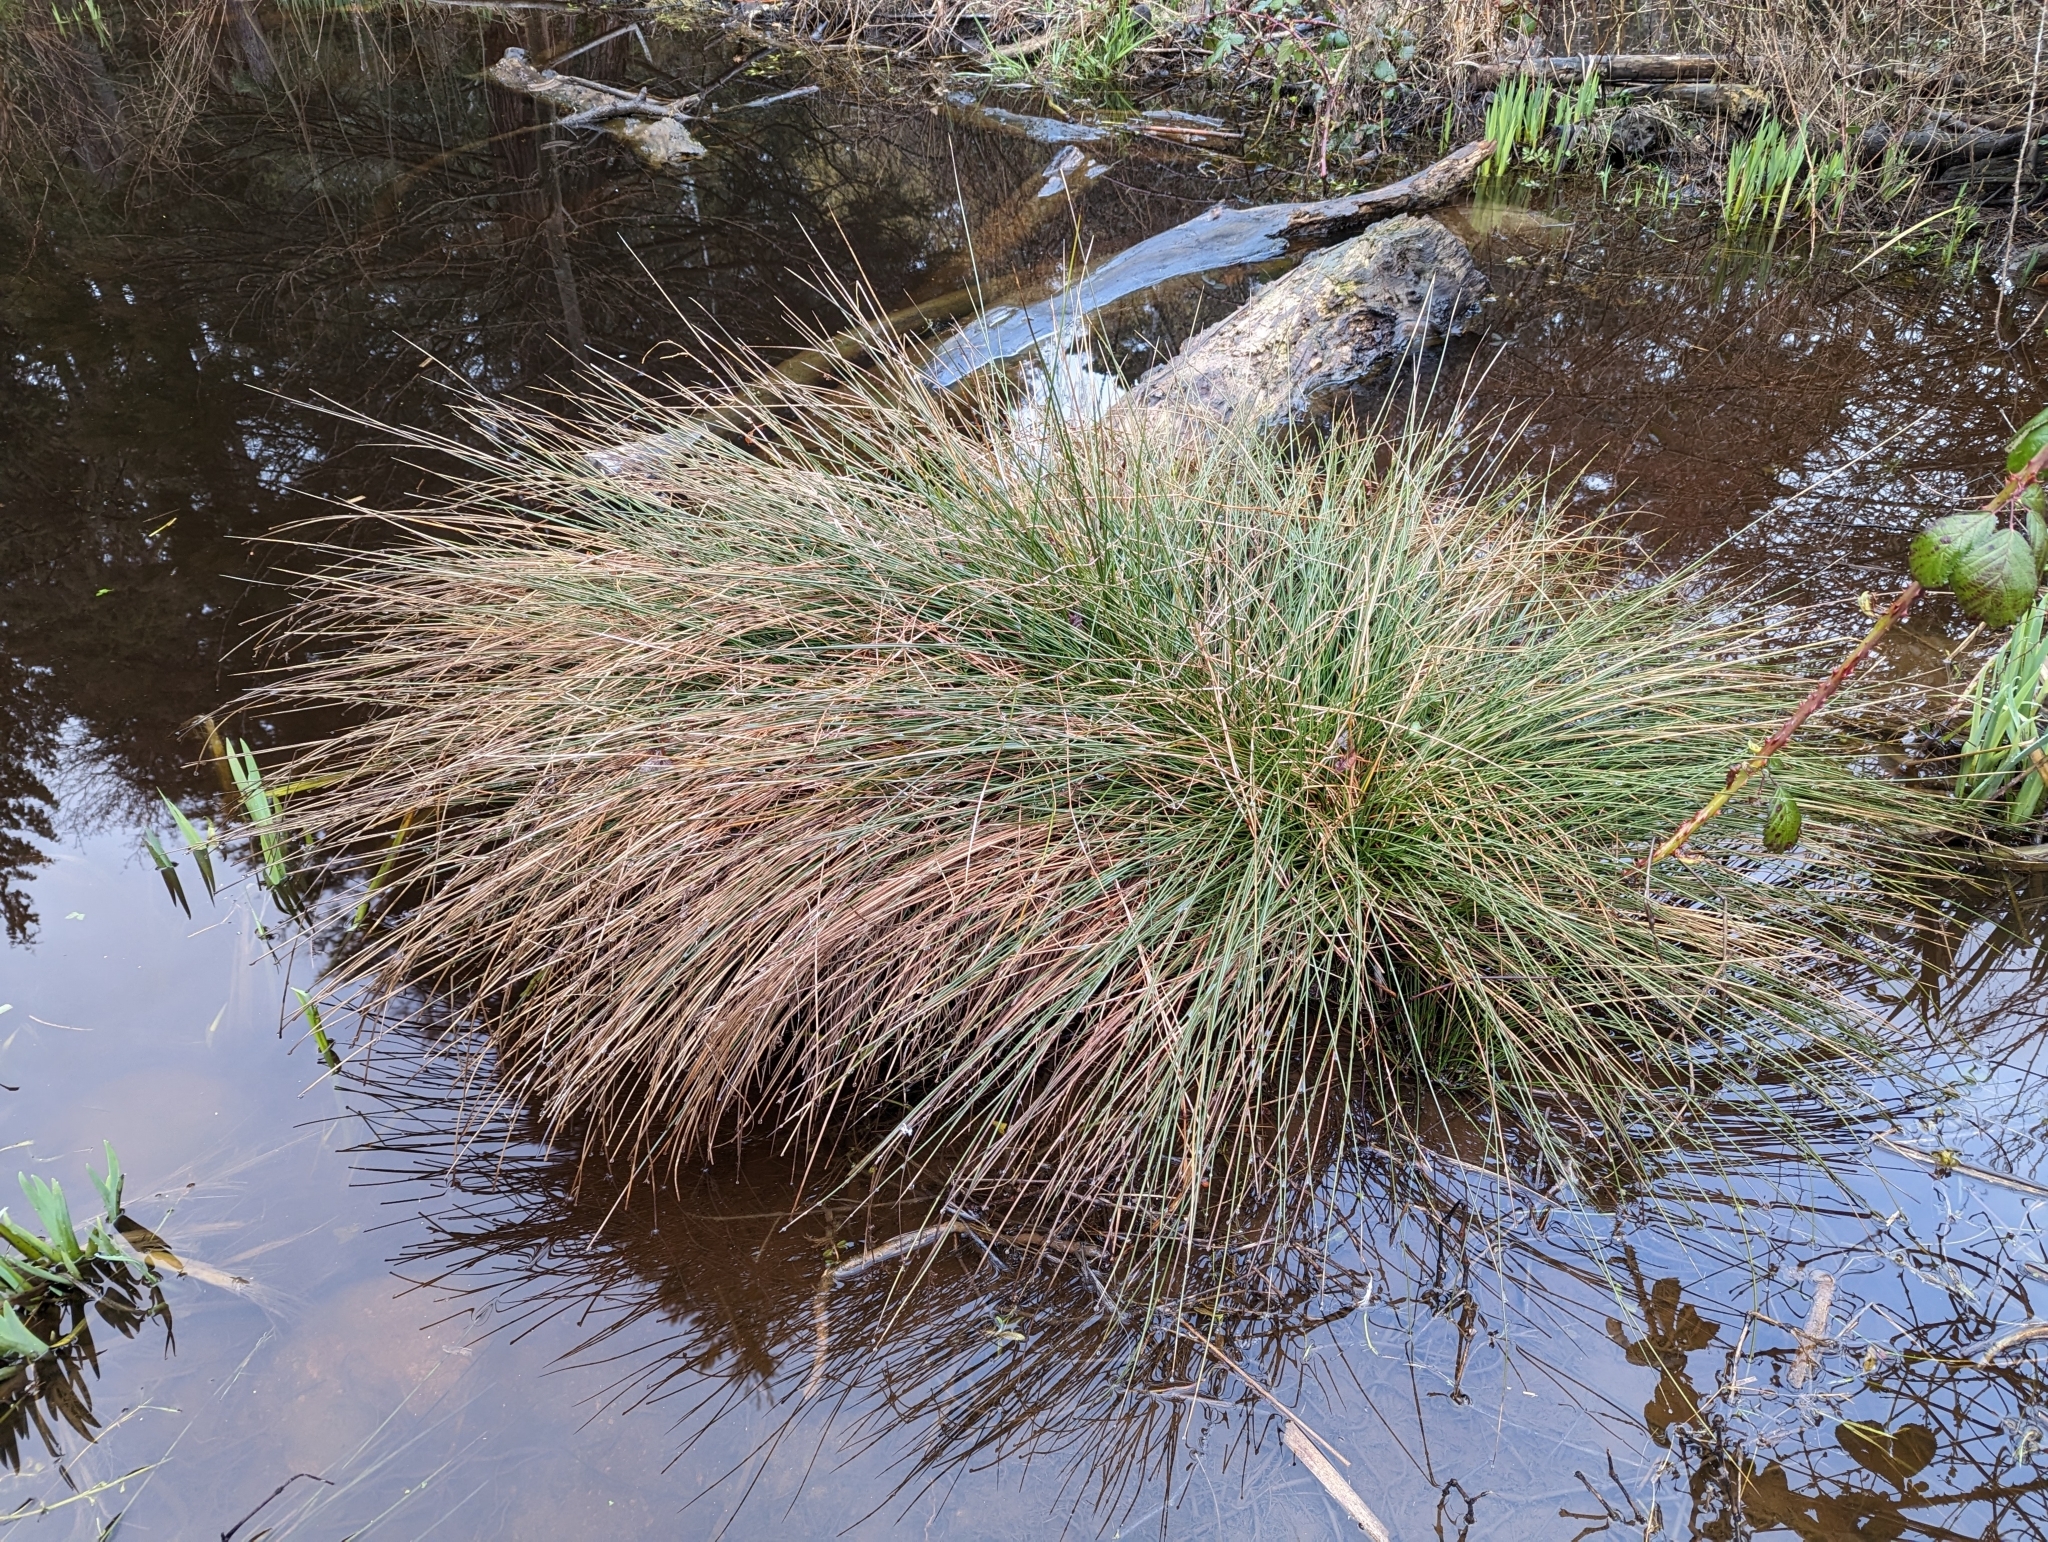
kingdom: Plantae
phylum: Tracheophyta
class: Liliopsida
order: Poales
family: Juncaceae
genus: Juncus
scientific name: Juncus effusus
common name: Soft rush
